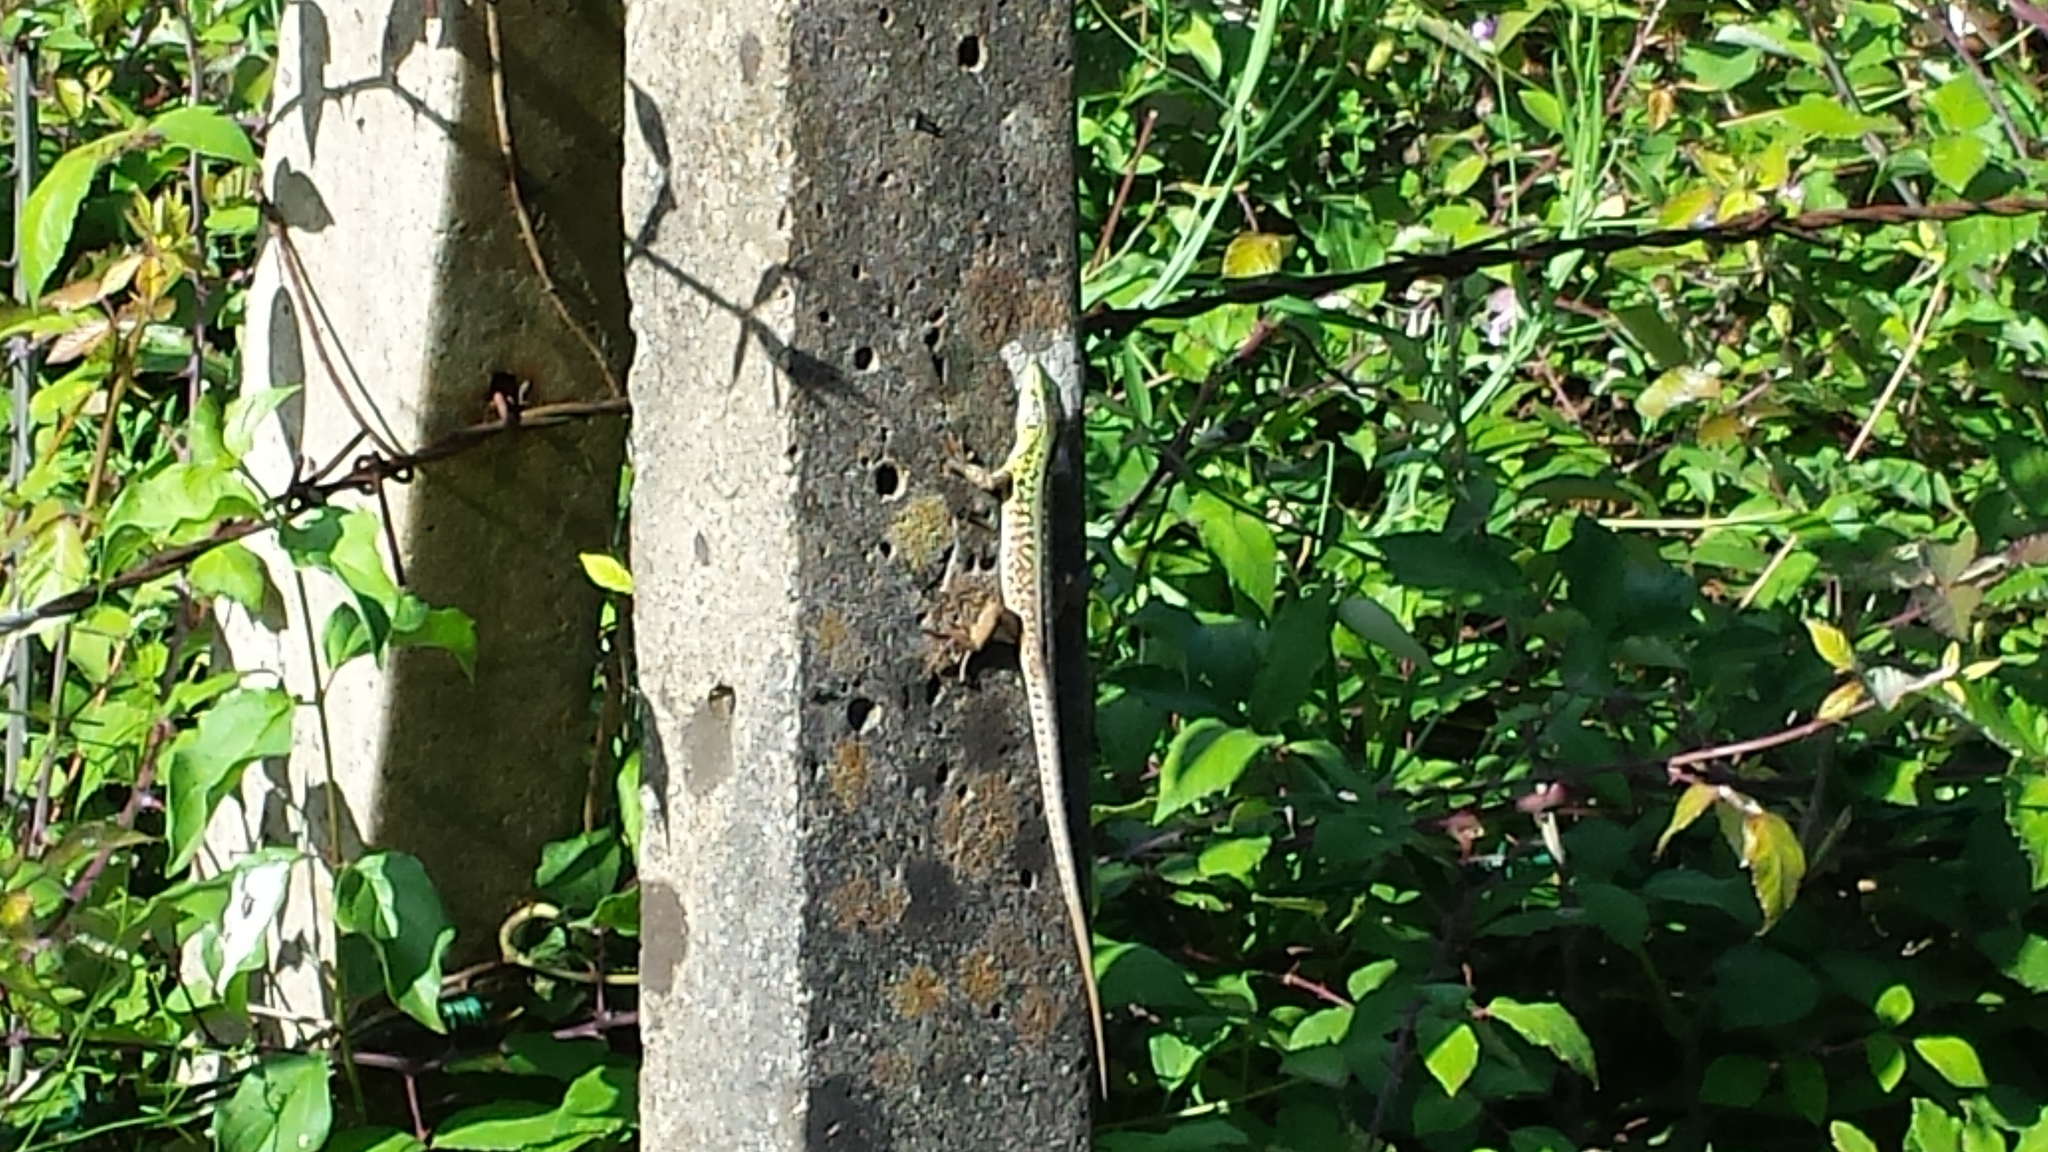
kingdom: Animalia
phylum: Chordata
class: Squamata
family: Lacertidae
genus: Podarcis
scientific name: Podarcis siculus
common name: Italian wall lizard
